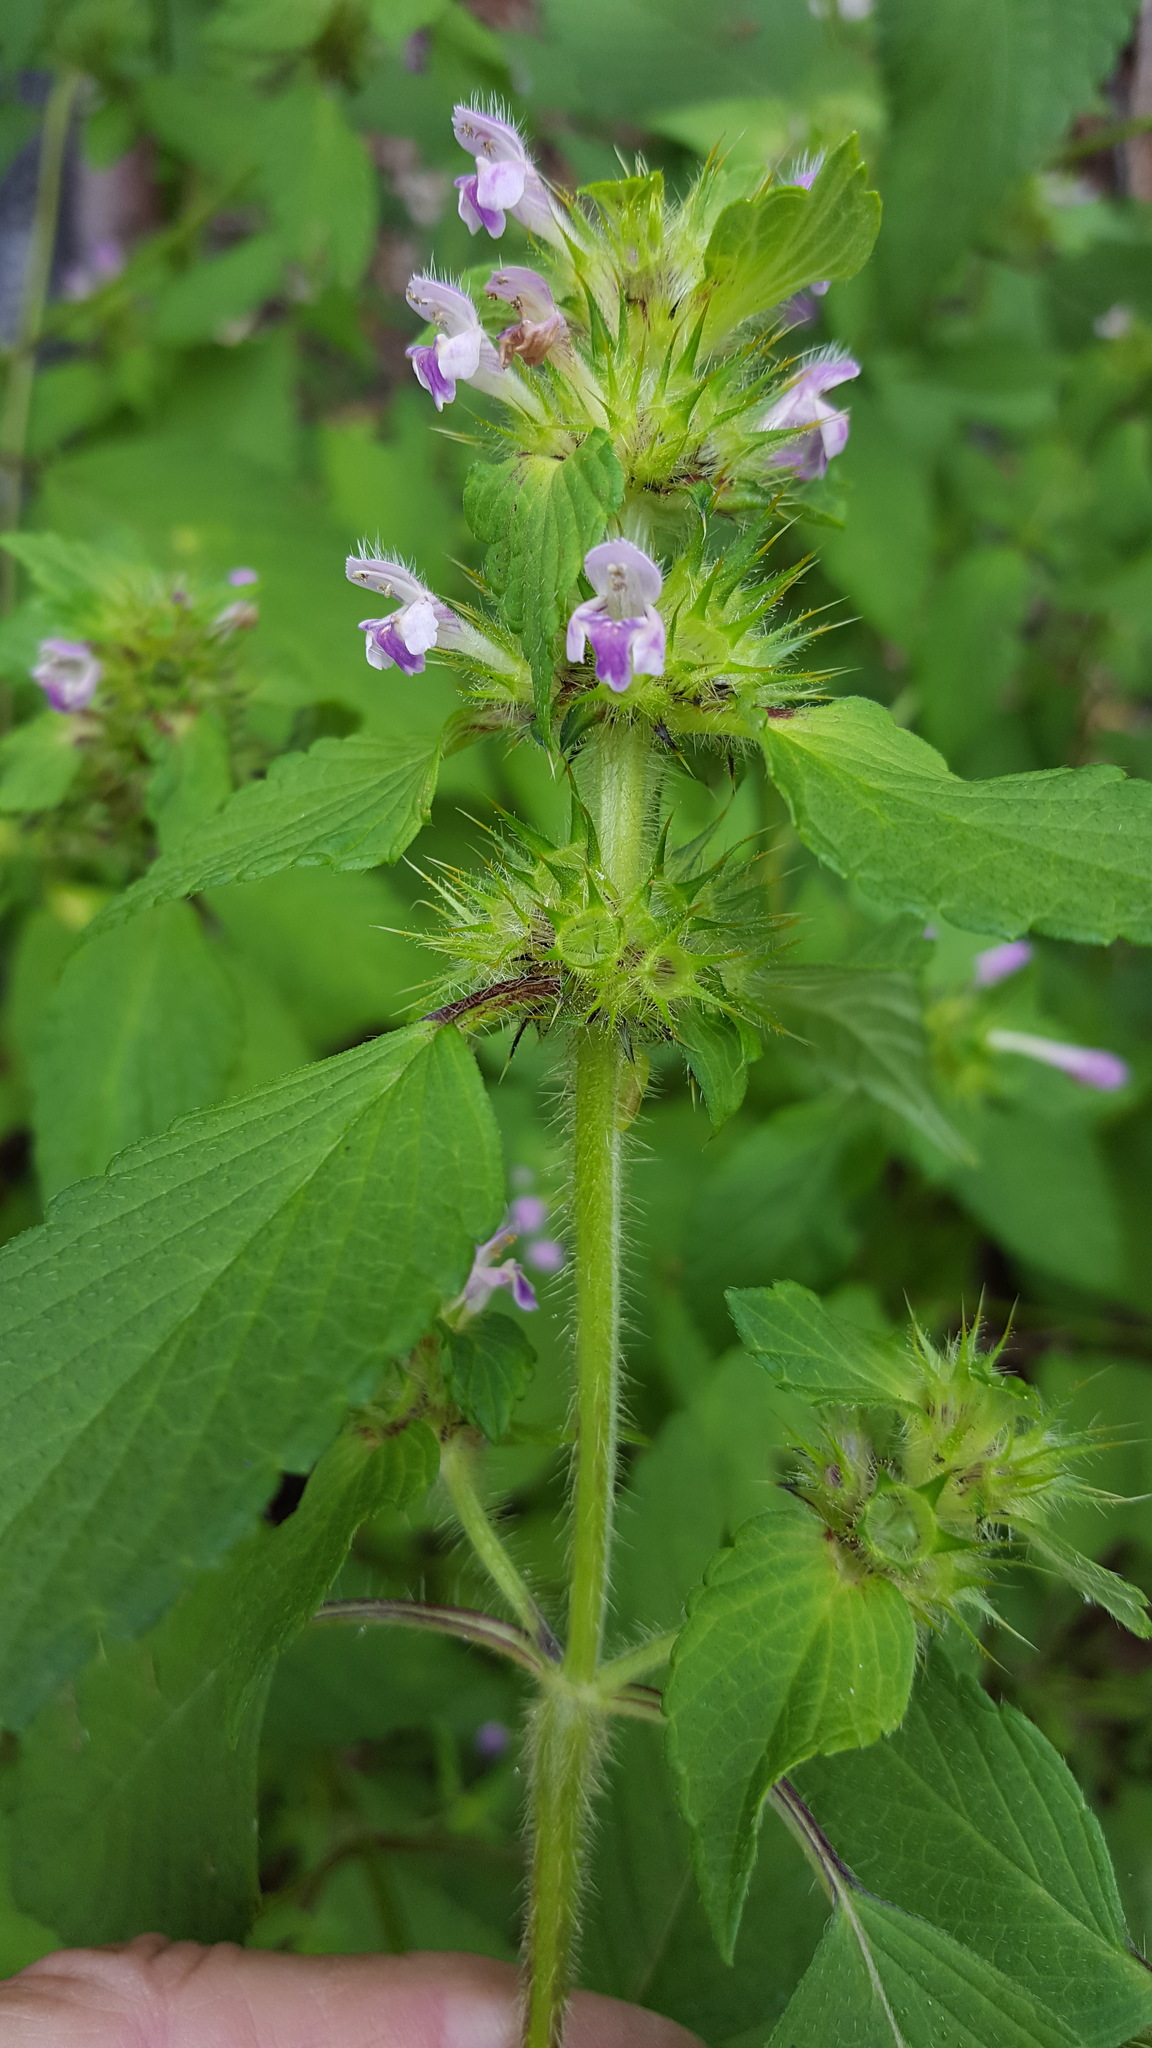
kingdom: Plantae
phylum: Tracheophyta
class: Magnoliopsida
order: Lamiales
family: Lamiaceae
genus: Galeopsis
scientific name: Galeopsis tetrahit
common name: Common hemp-nettle
